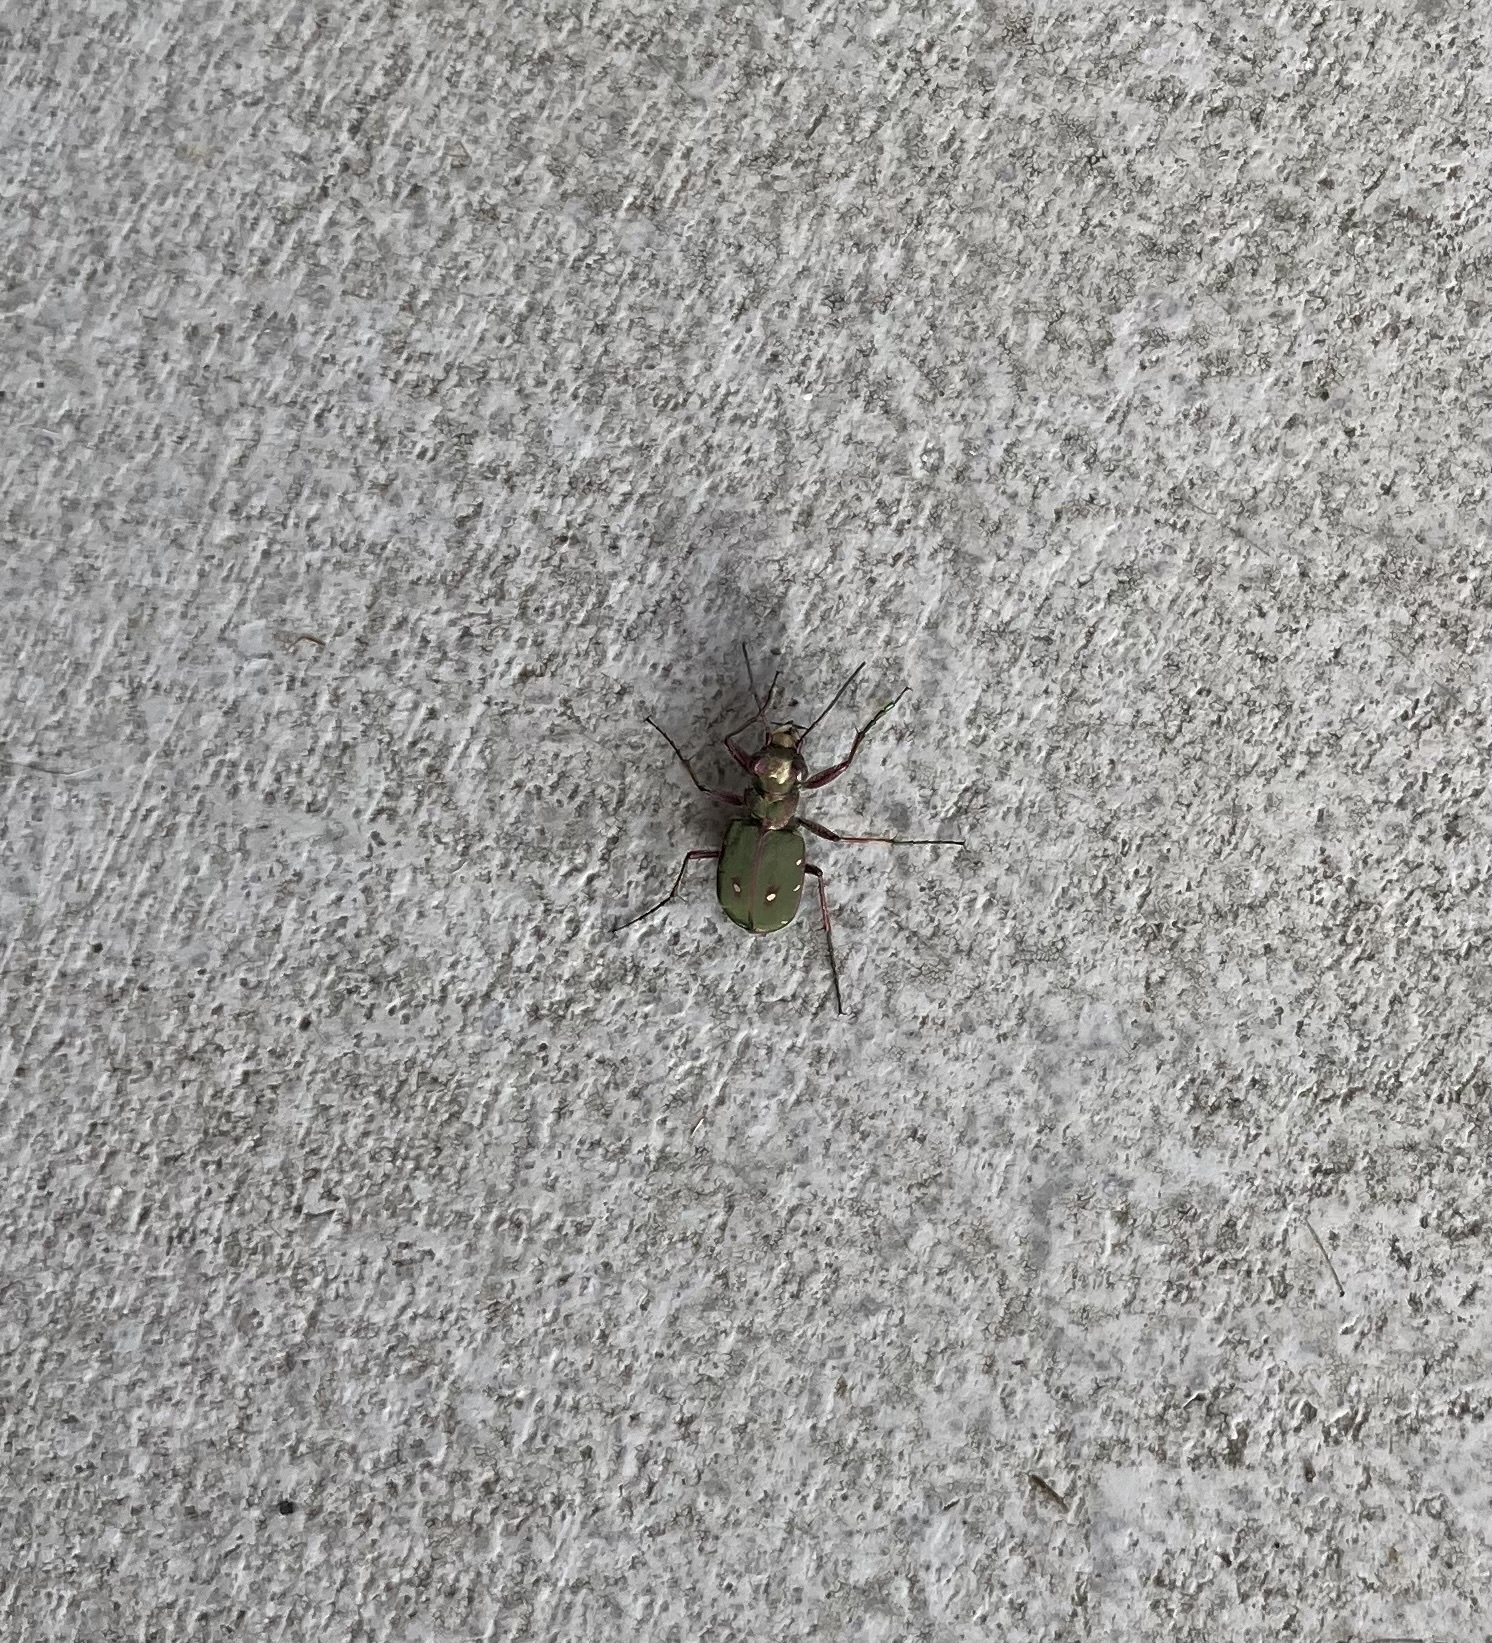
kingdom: Animalia
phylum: Arthropoda
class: Insecta
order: Coleoptera
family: Carabidae
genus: Cicindela
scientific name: Cicindela campestris
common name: Common tiger beetle
